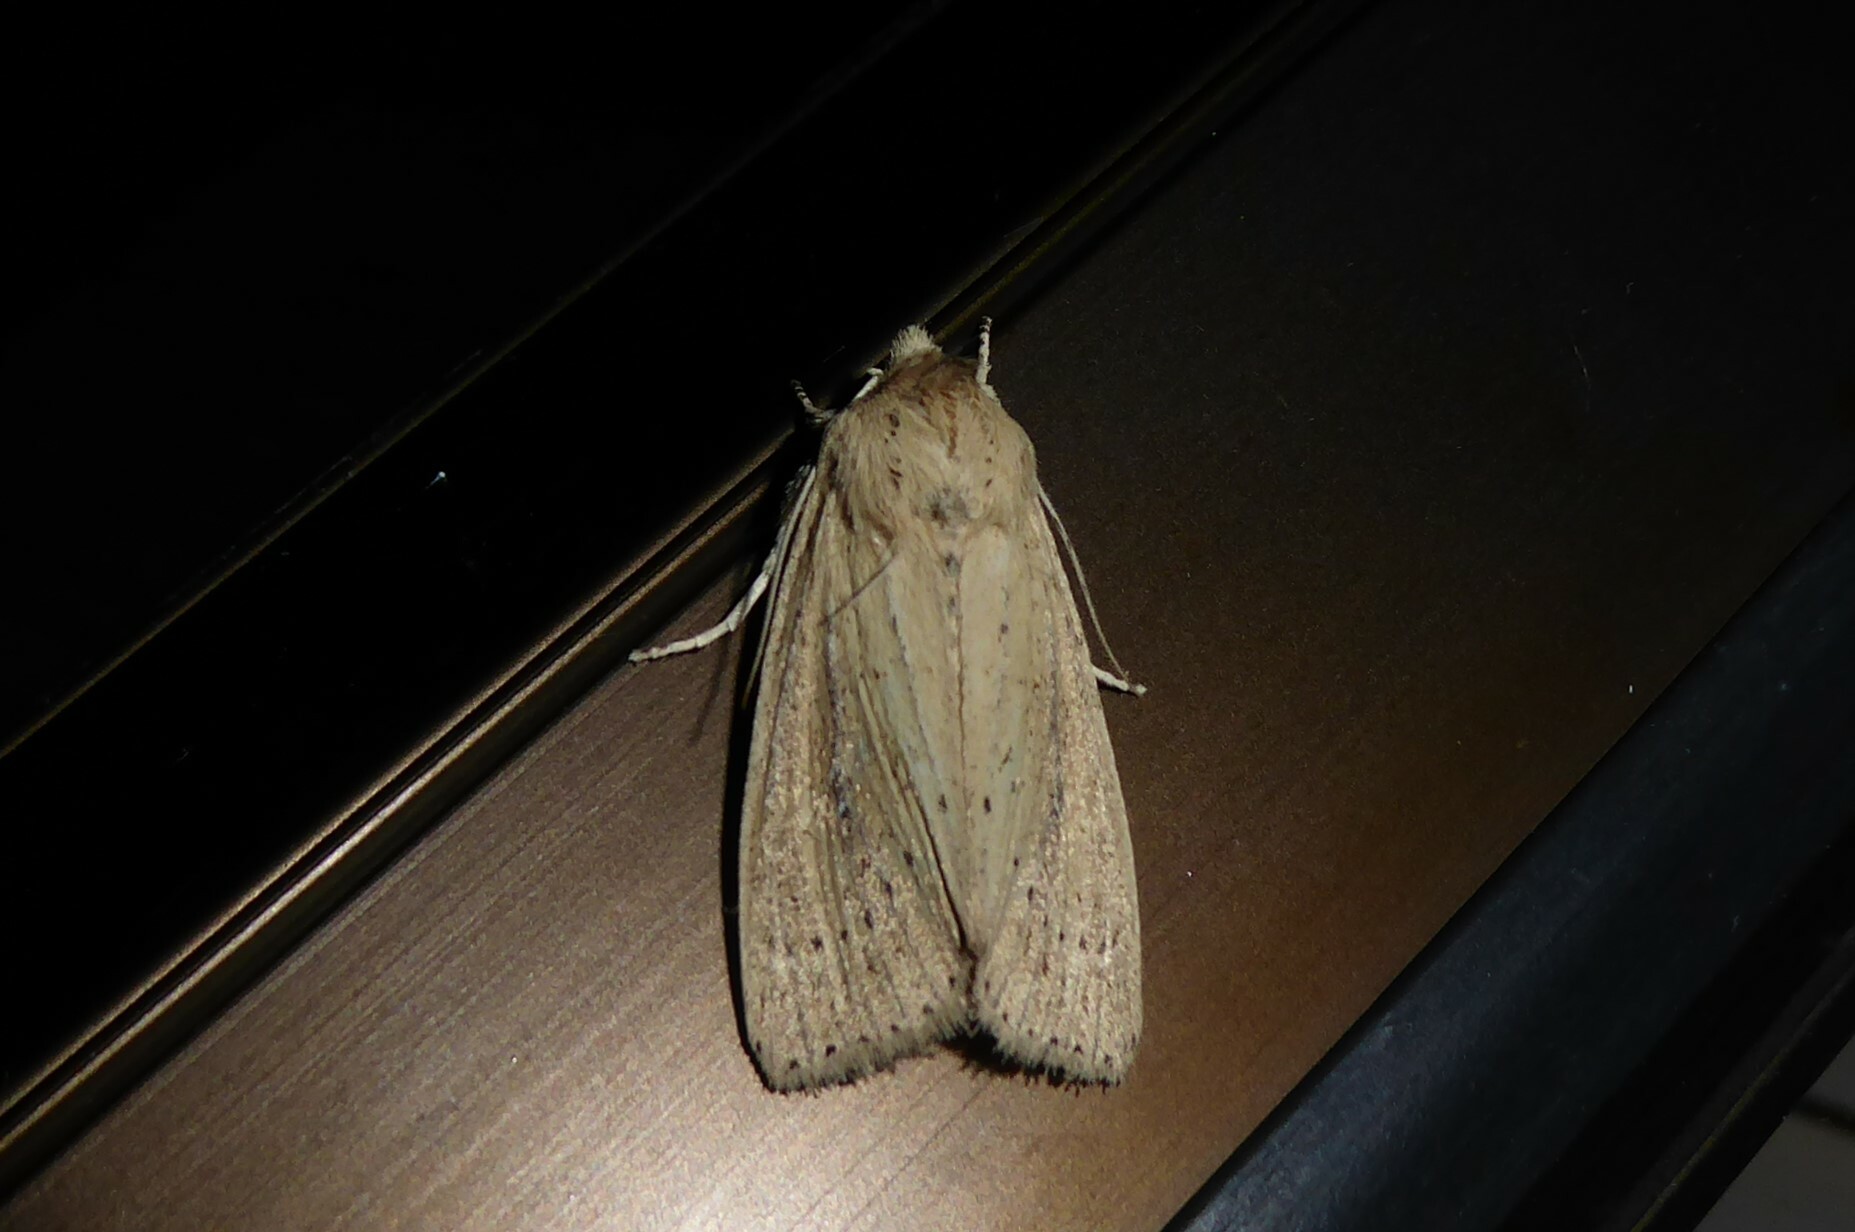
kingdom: Animalia
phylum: Arthropoda
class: Insecta
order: Lepidoptera
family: Noctuidae
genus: Ichneutica
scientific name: Ichneutica
